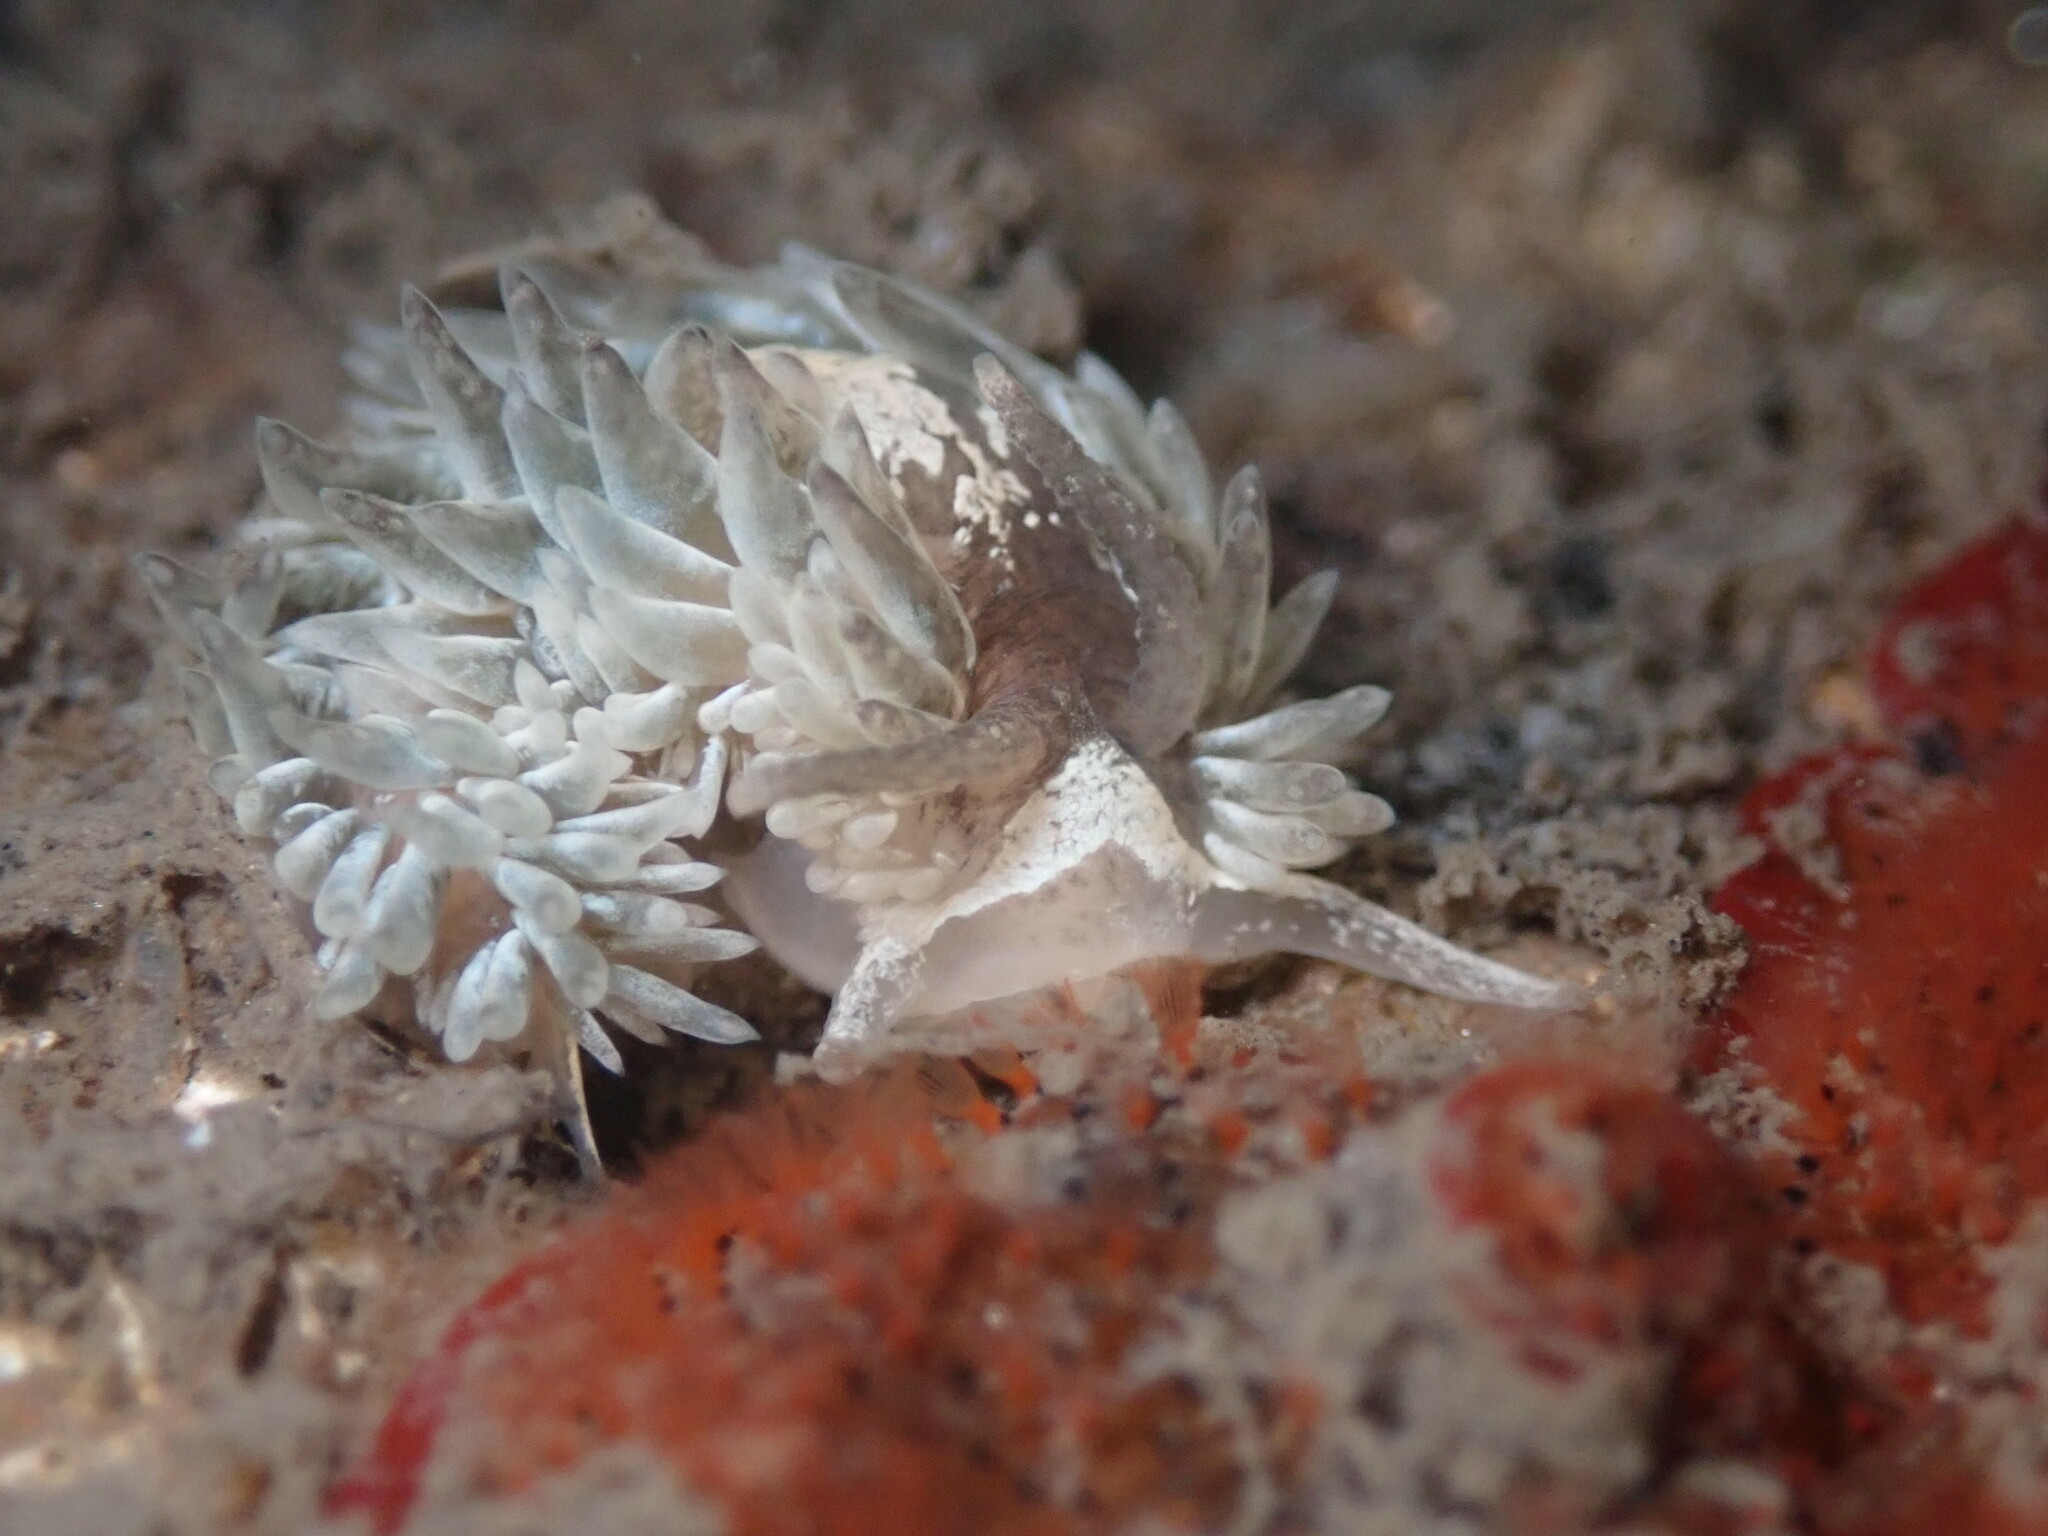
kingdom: Animalia
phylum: Mollusca
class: Gastropoda
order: Nudibranchia
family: Aeolidiidae
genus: Aeolidia
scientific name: Aeolidia loui
